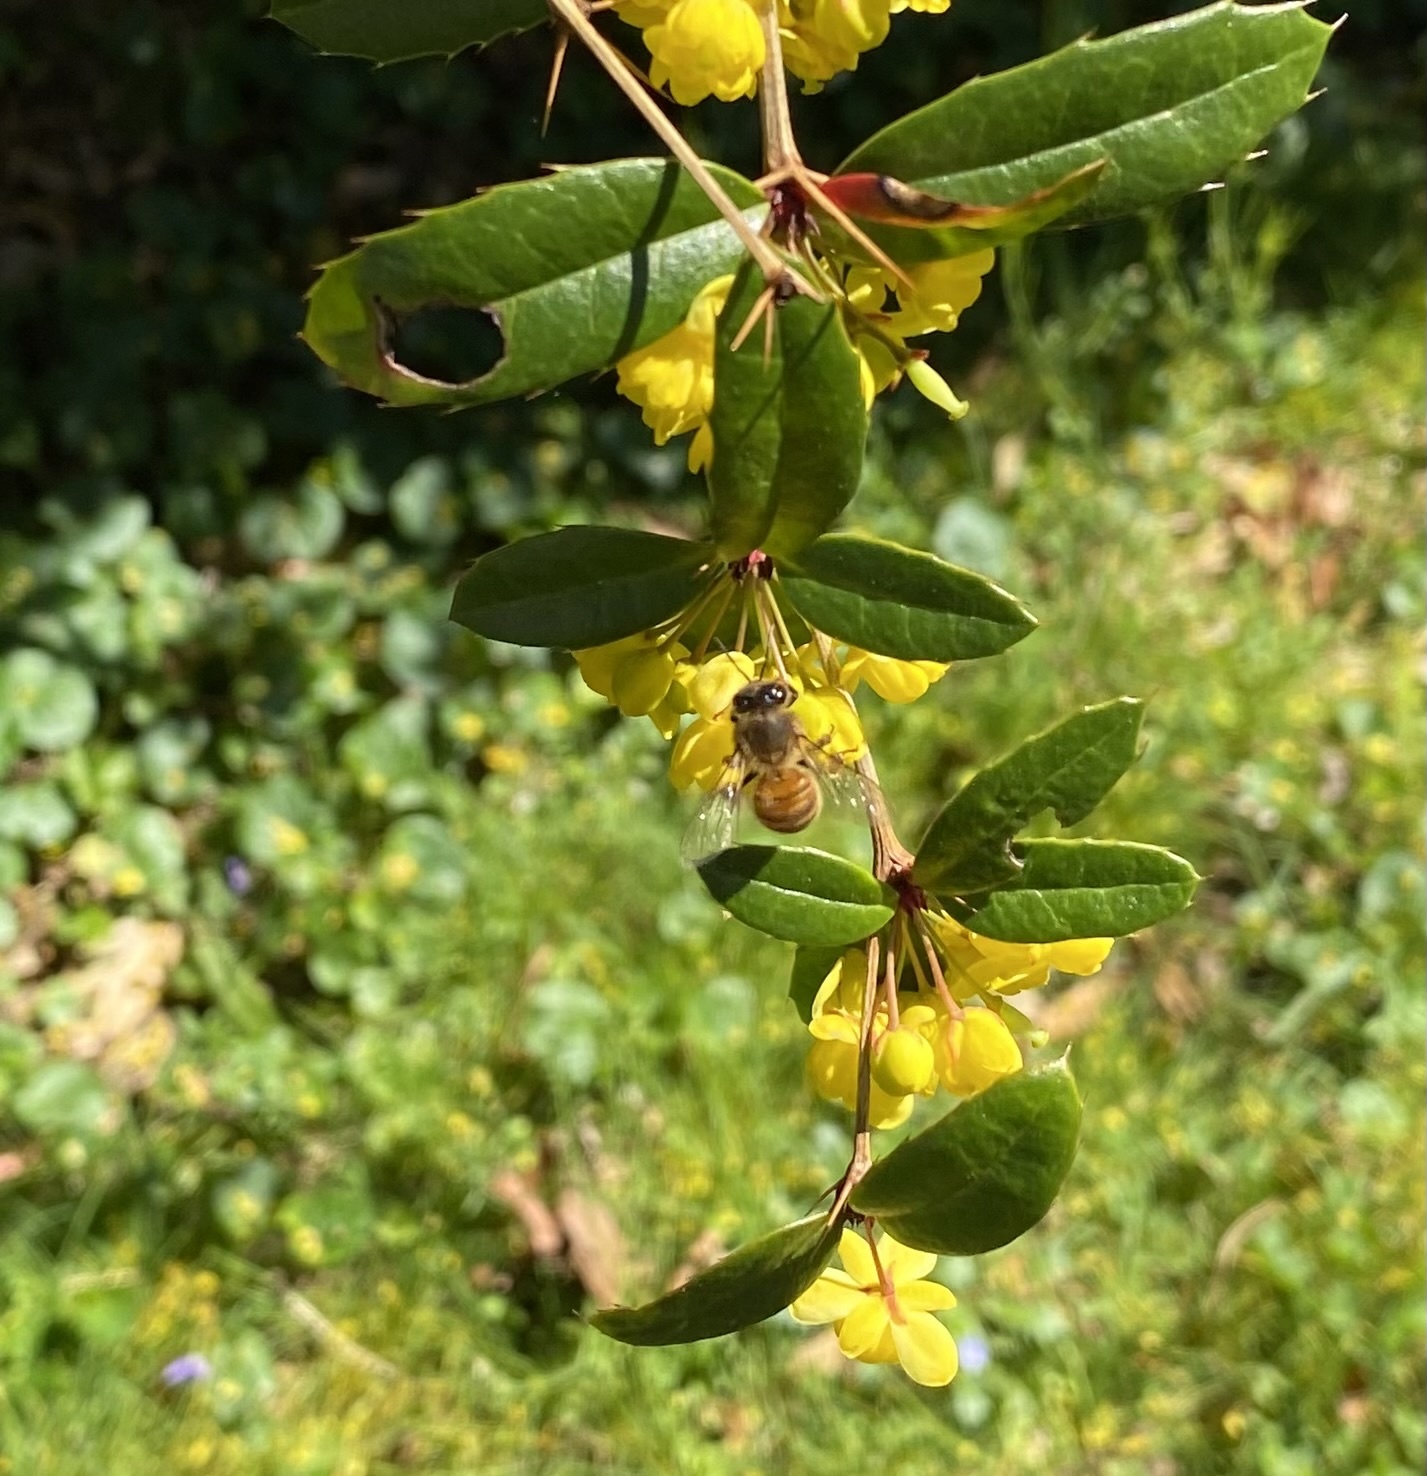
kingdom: Animalia
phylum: Arthropoda
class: Insecta
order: Hymenoptera
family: Apidae
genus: Apis
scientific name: Apis mellifera
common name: Honey bee
